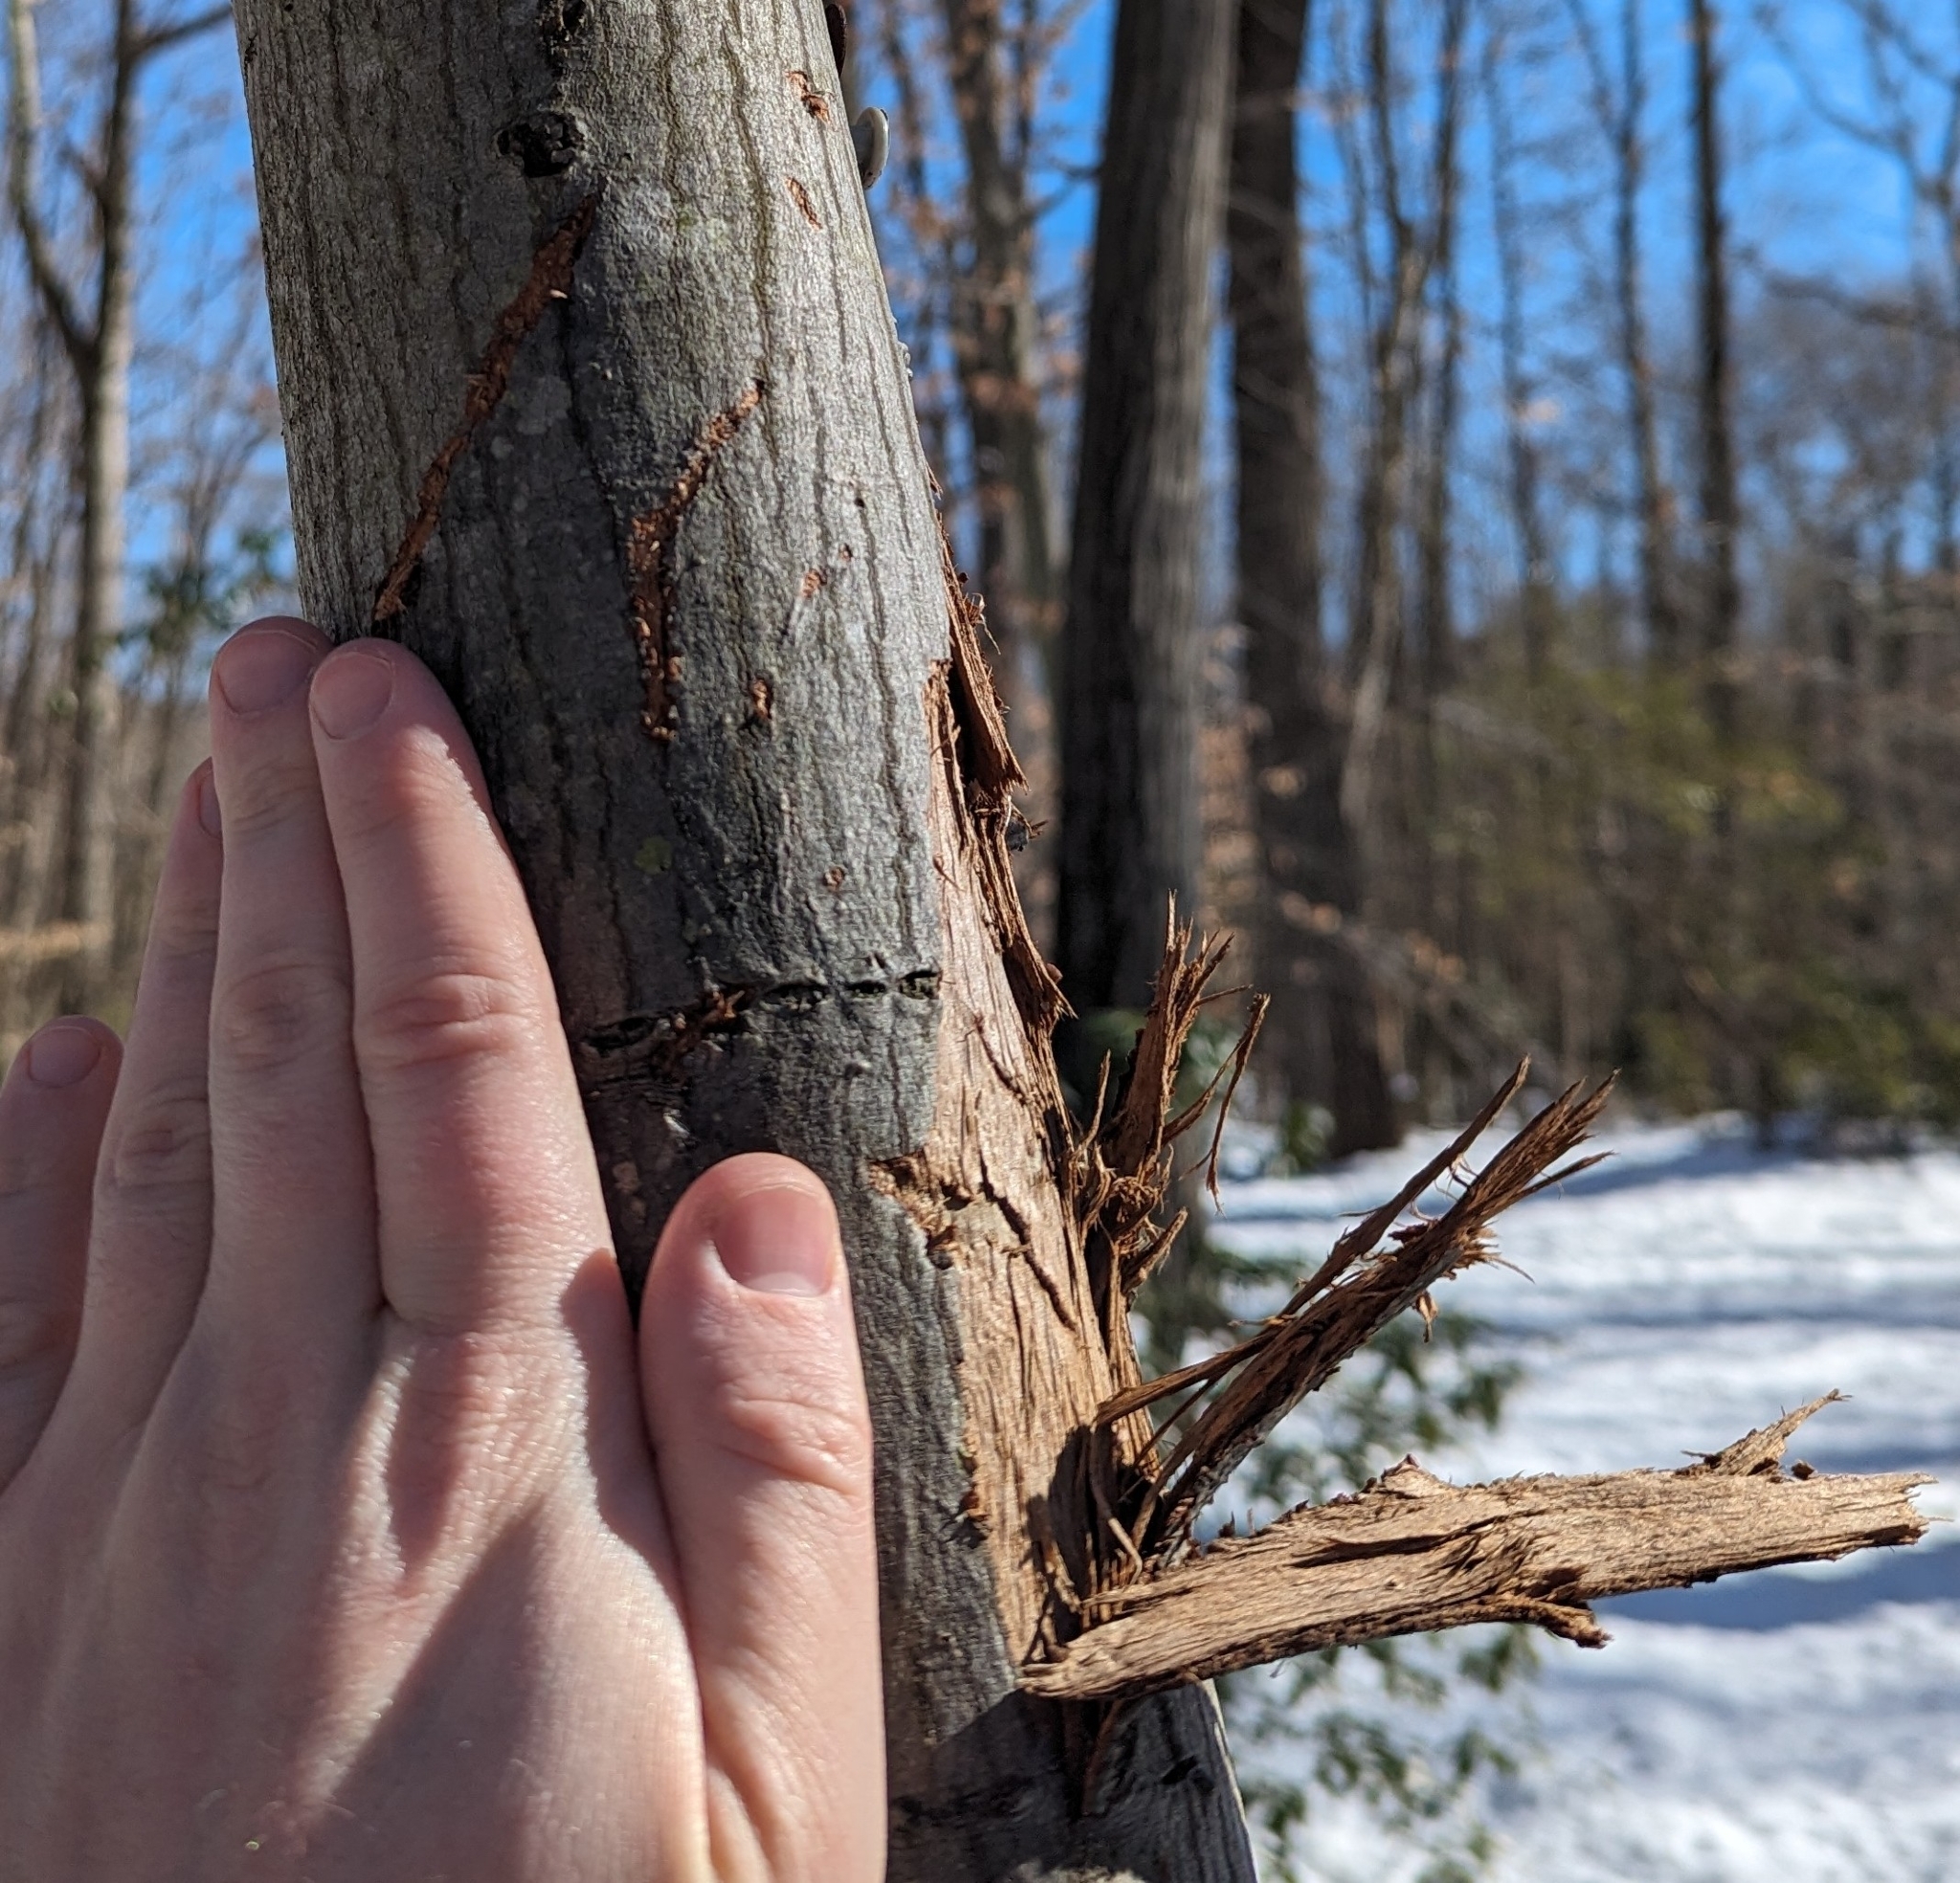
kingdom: Animalia
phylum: Chordata
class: Mammalia
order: Carnivora
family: Ursidae
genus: Ursus
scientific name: Ursus americanus
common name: American black bear
